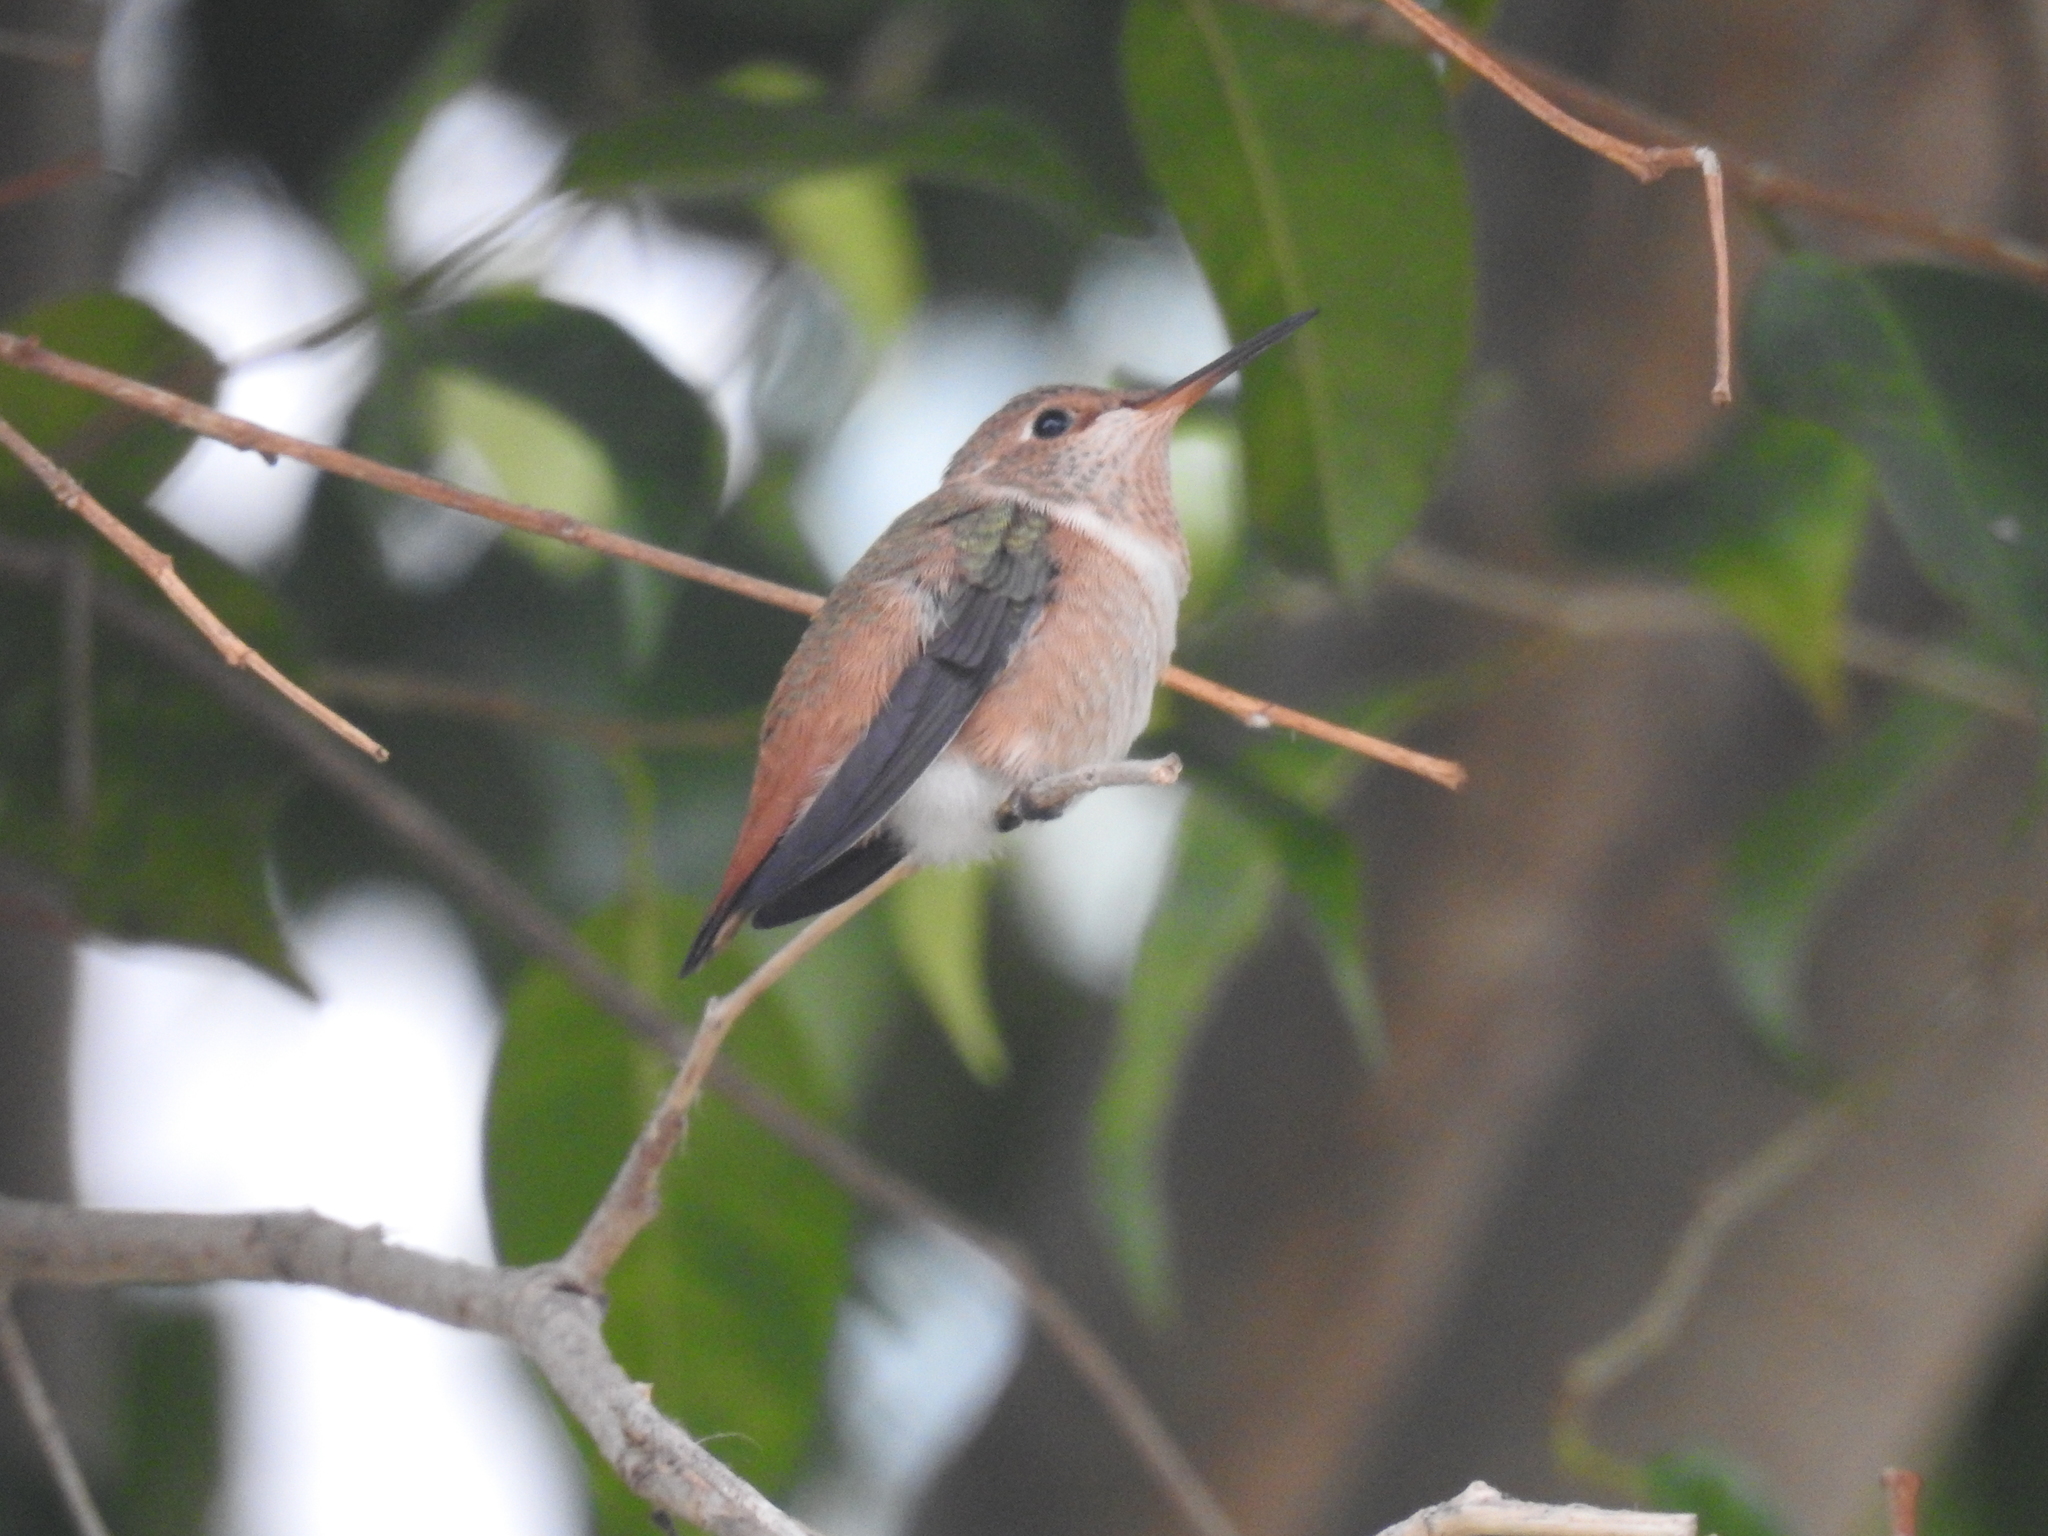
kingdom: Animalia
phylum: Chordata
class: Aves
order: Apodiformes
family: Trochilidae
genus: Selasphorus
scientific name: Selasphorus sasin
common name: Allen's hummingbird
